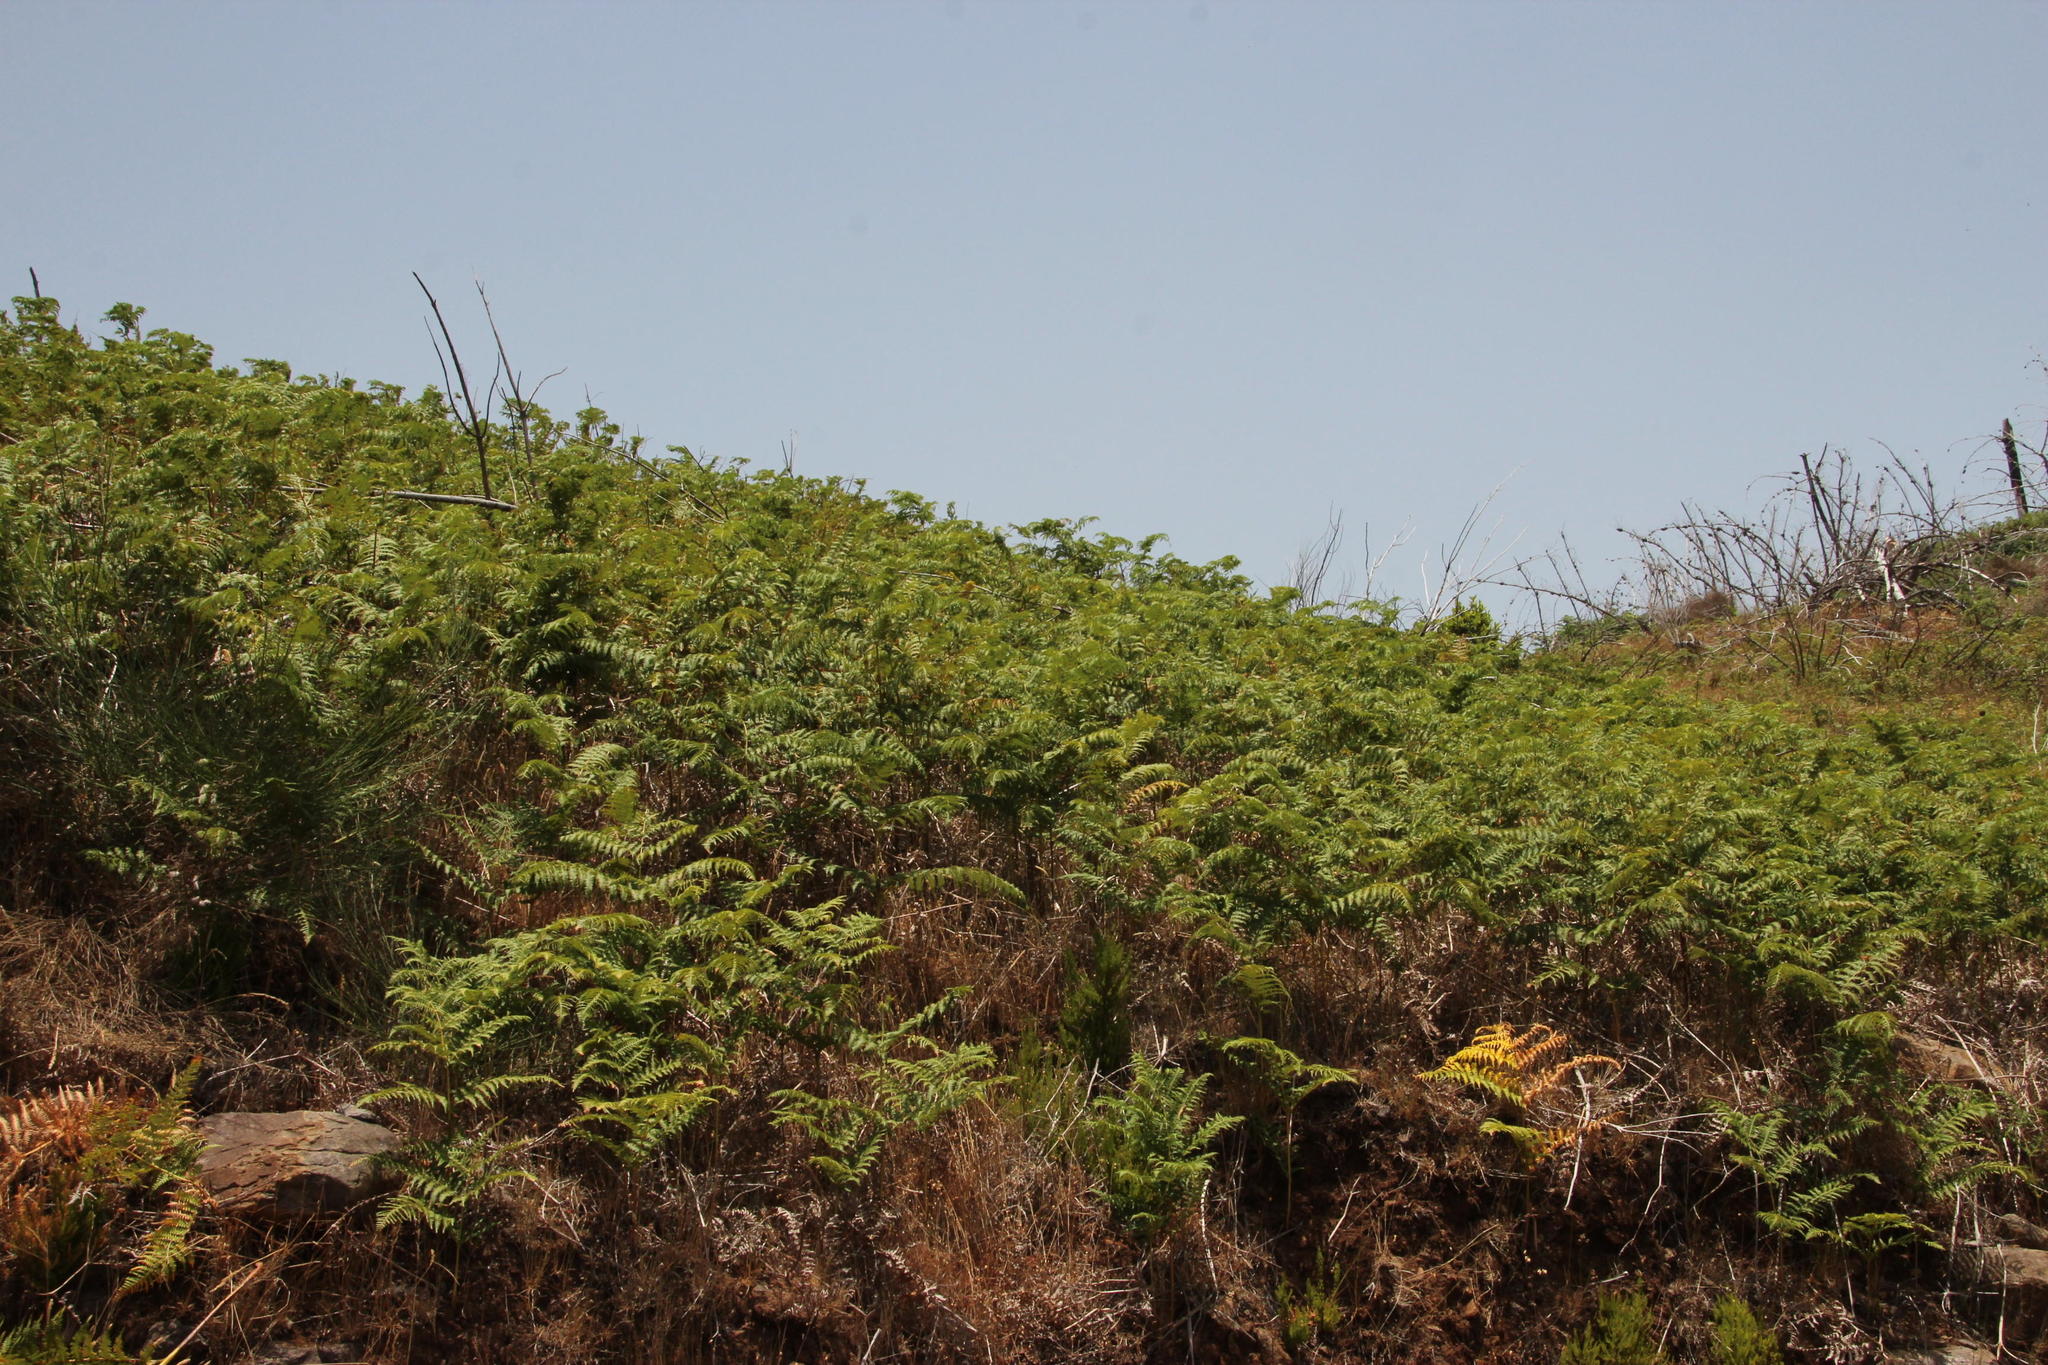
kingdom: Plantae
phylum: Tracheophyta
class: Polypodiopsida
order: Polypodiales
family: Dennstaedtiaceae
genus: Pteridium
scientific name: Pteridium aquilinum
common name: Bracken
